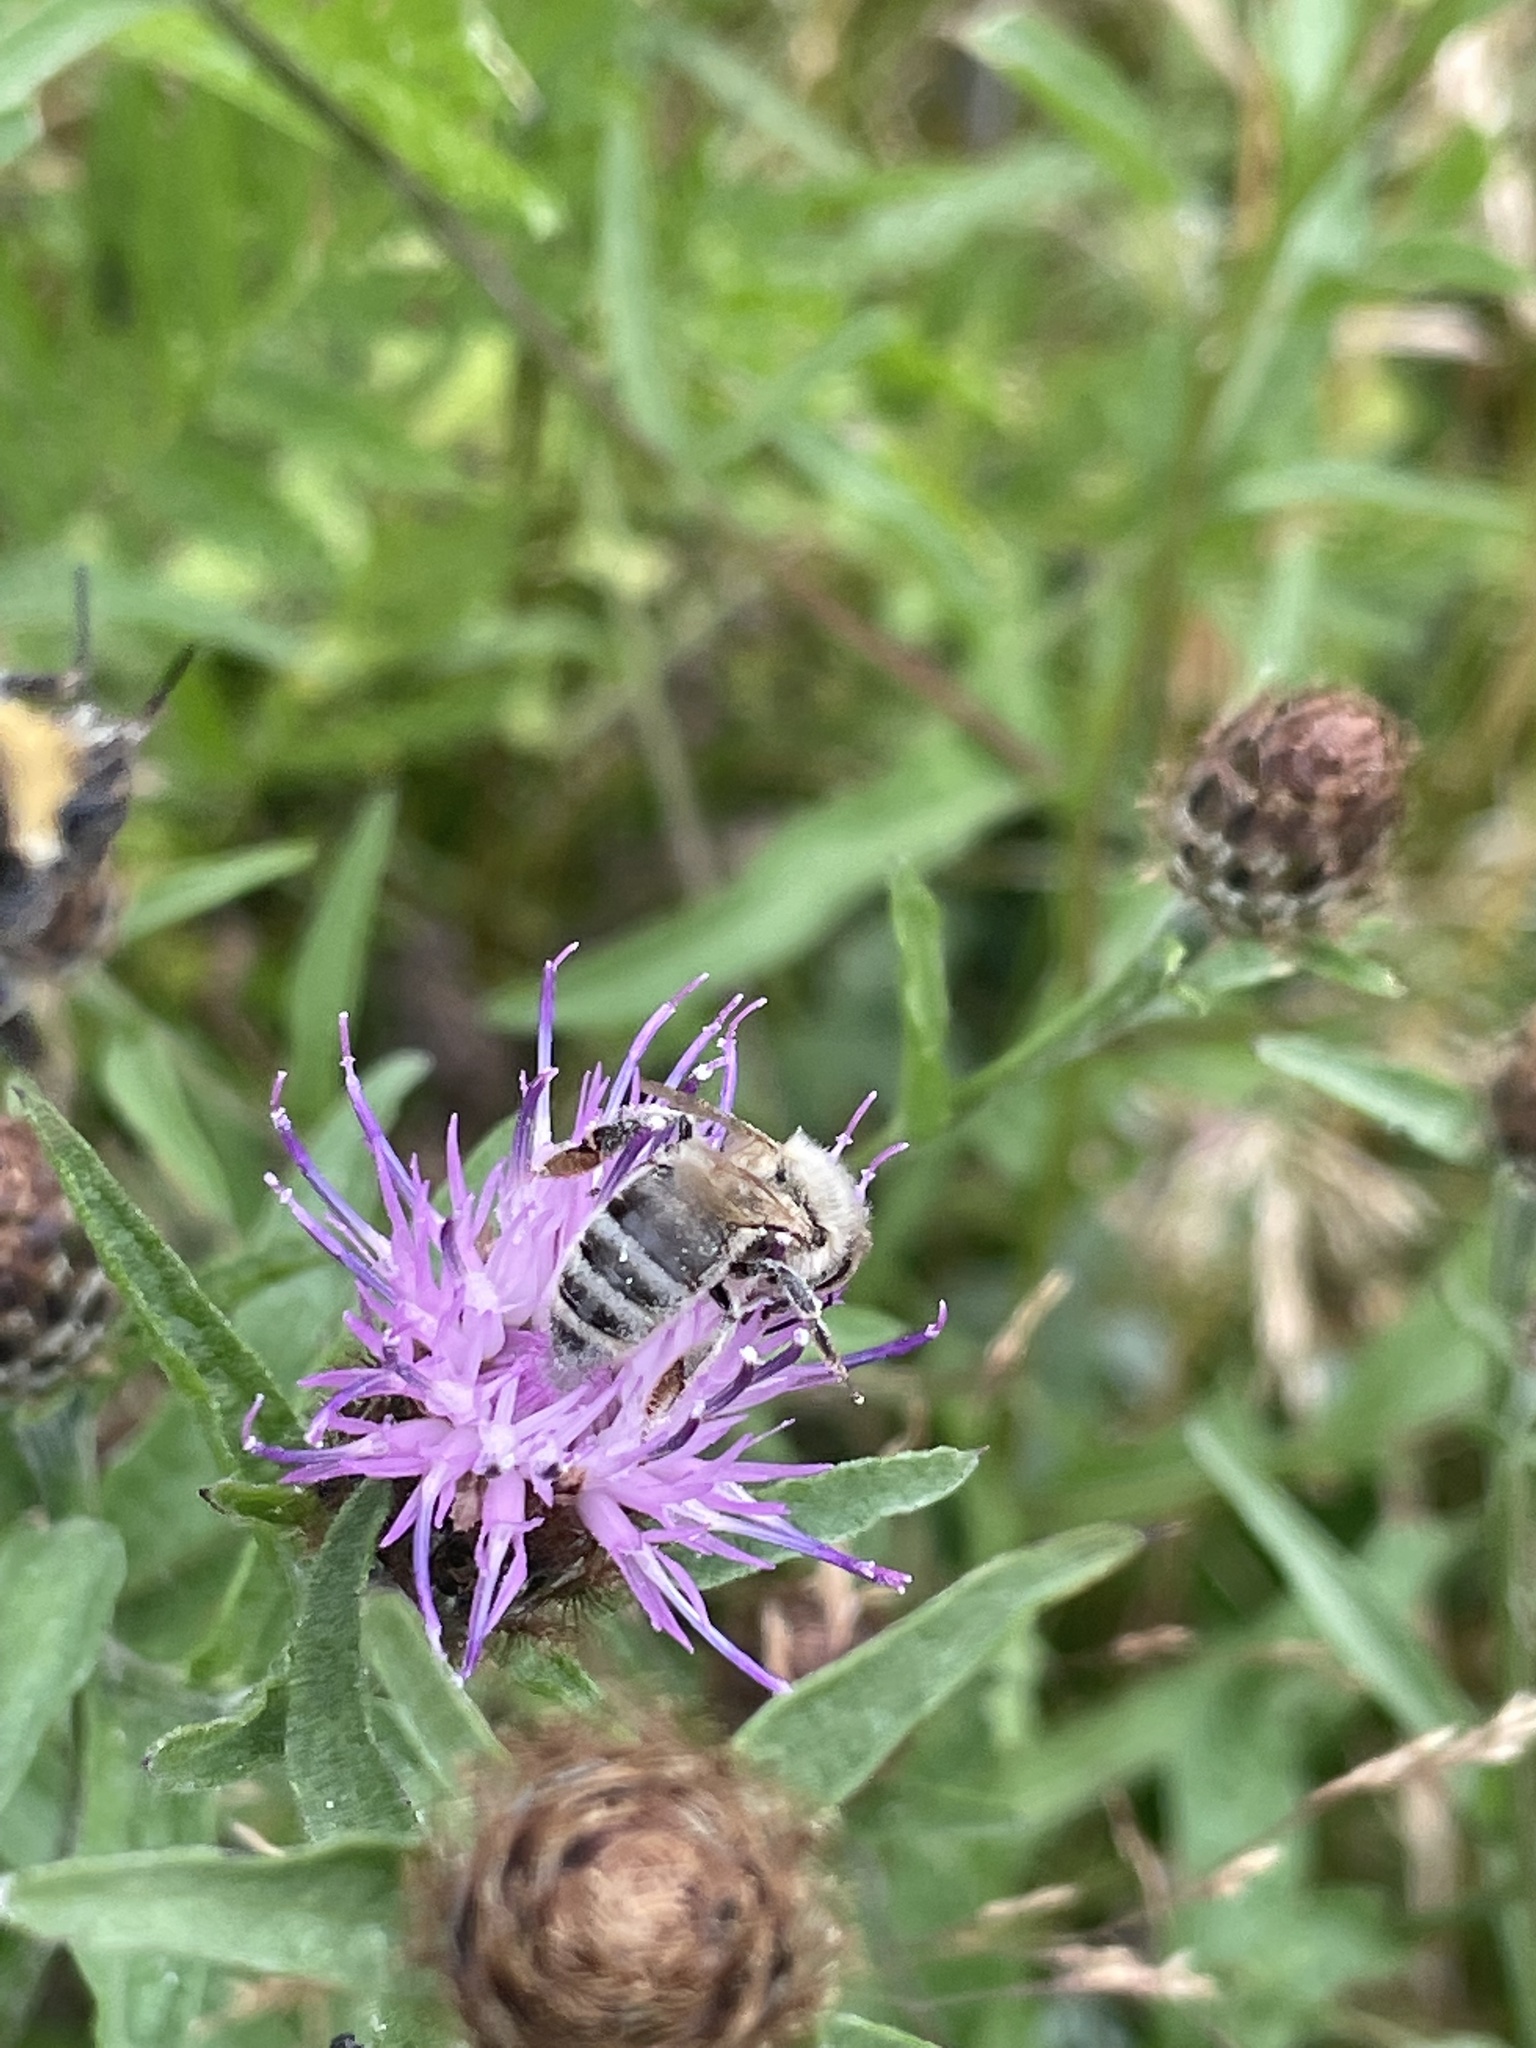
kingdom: Animalia
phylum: Arthropoda
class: Insecta
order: Hymenoptera
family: Apidae
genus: Apis
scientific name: Apis mellifera
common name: Honey bee
